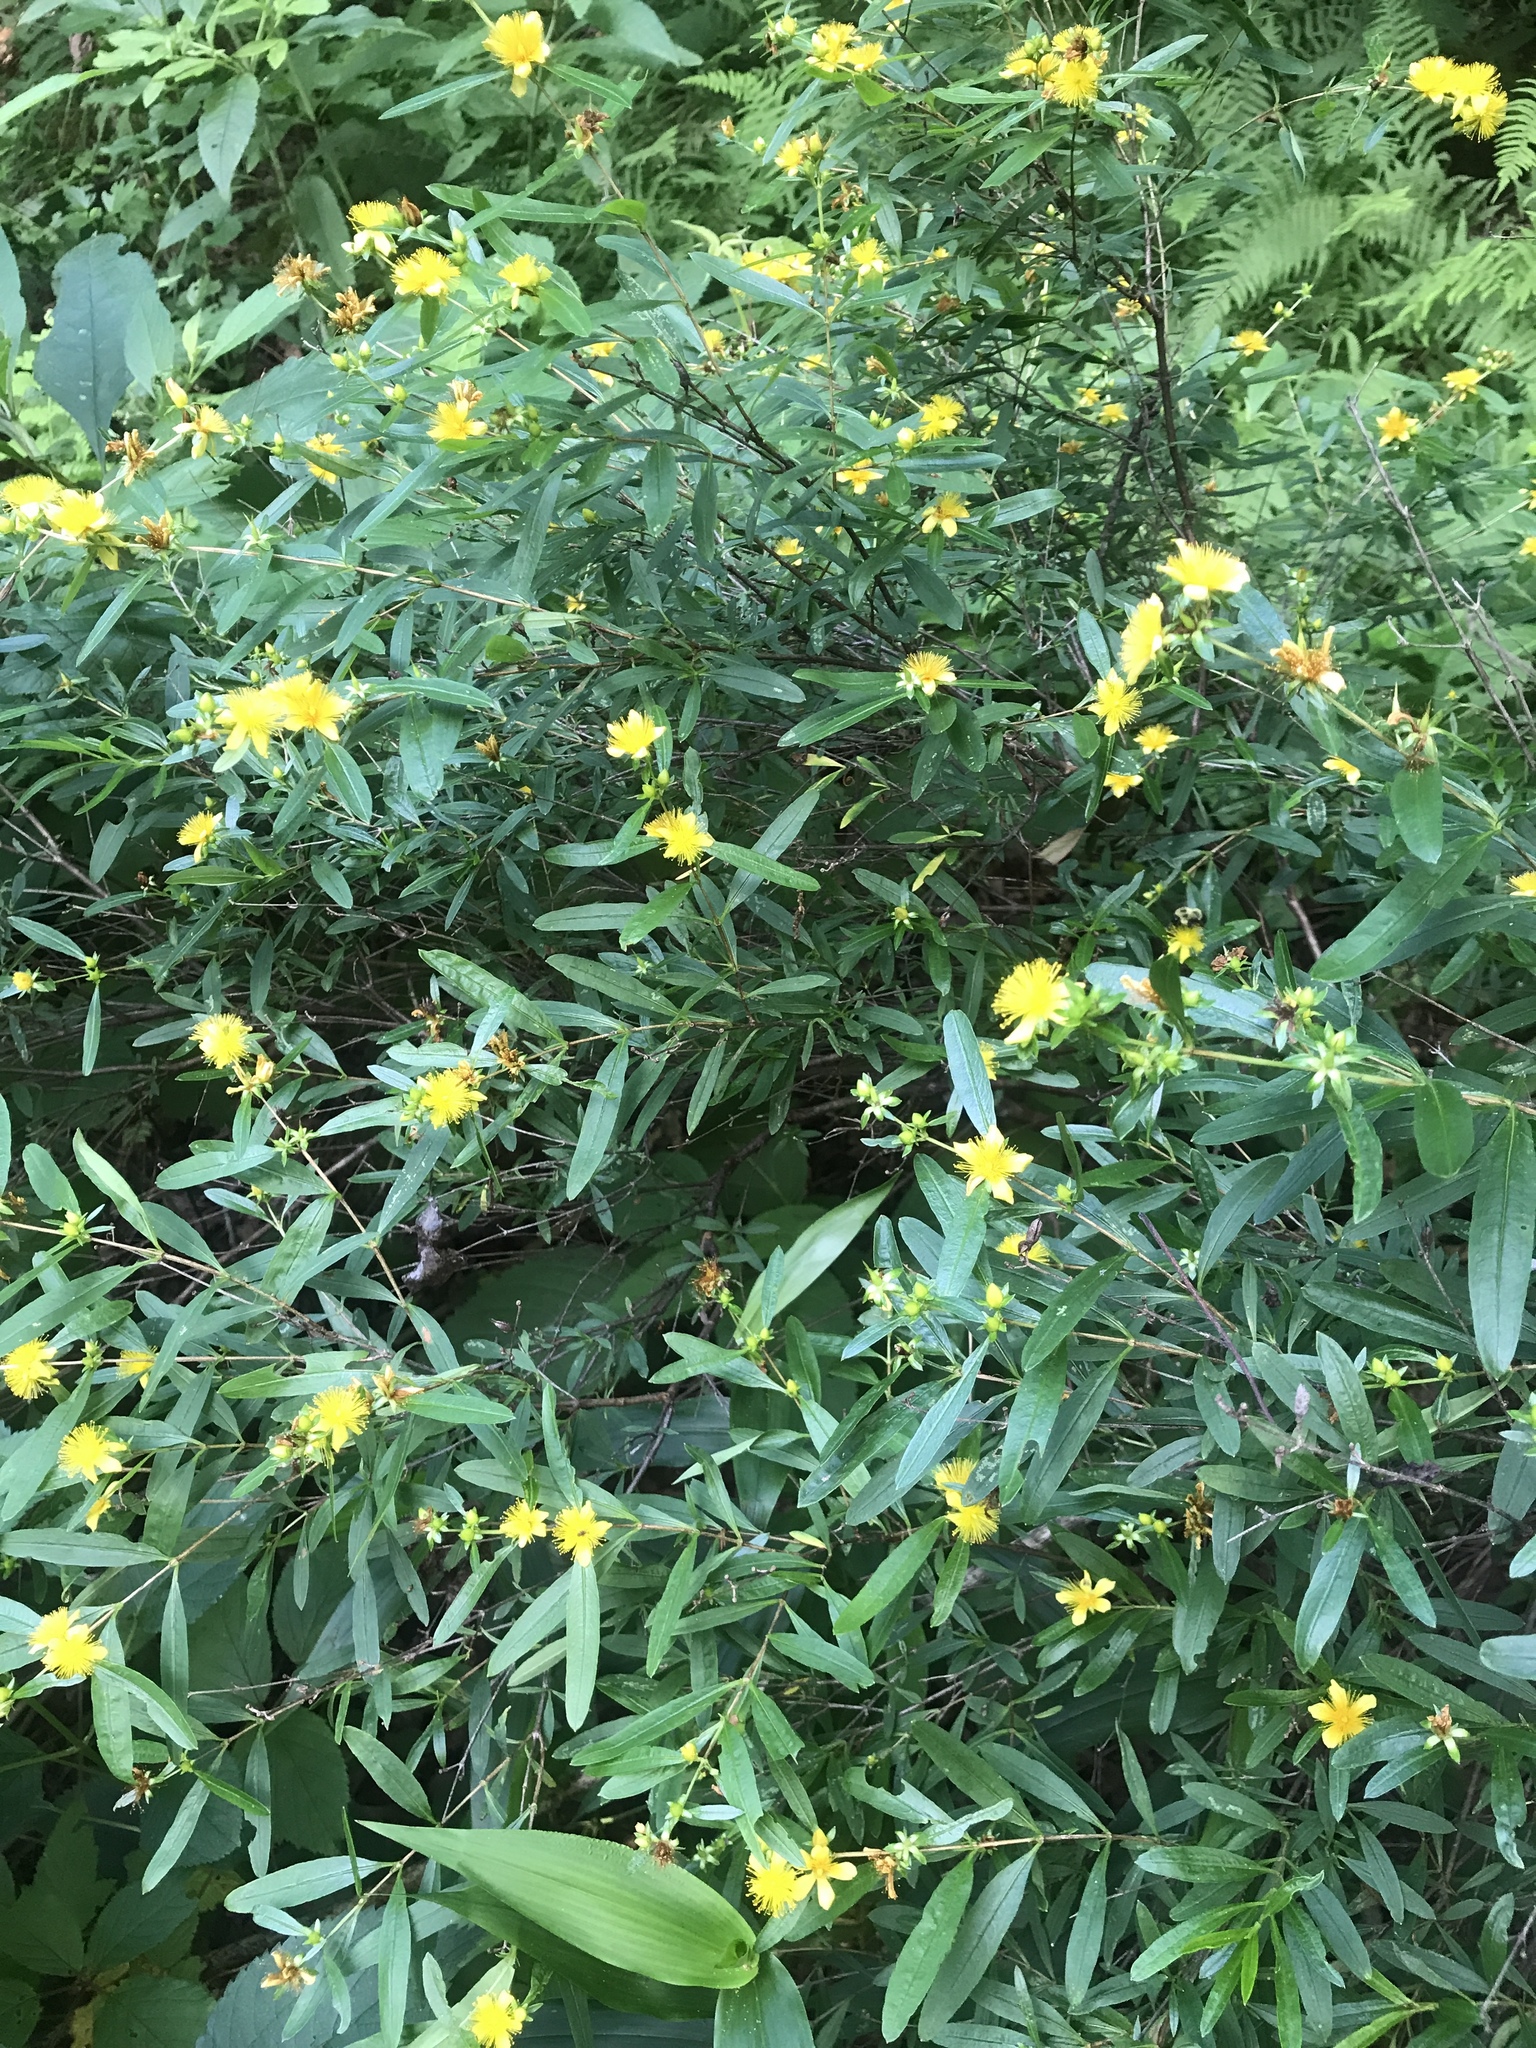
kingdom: Plantae
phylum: Tracheophyta
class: Magnoliopsida
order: Malpighiales
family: Hypericaceae
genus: Hypericum
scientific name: Hypericum prolificum
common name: Shrubby st. john's-wort
